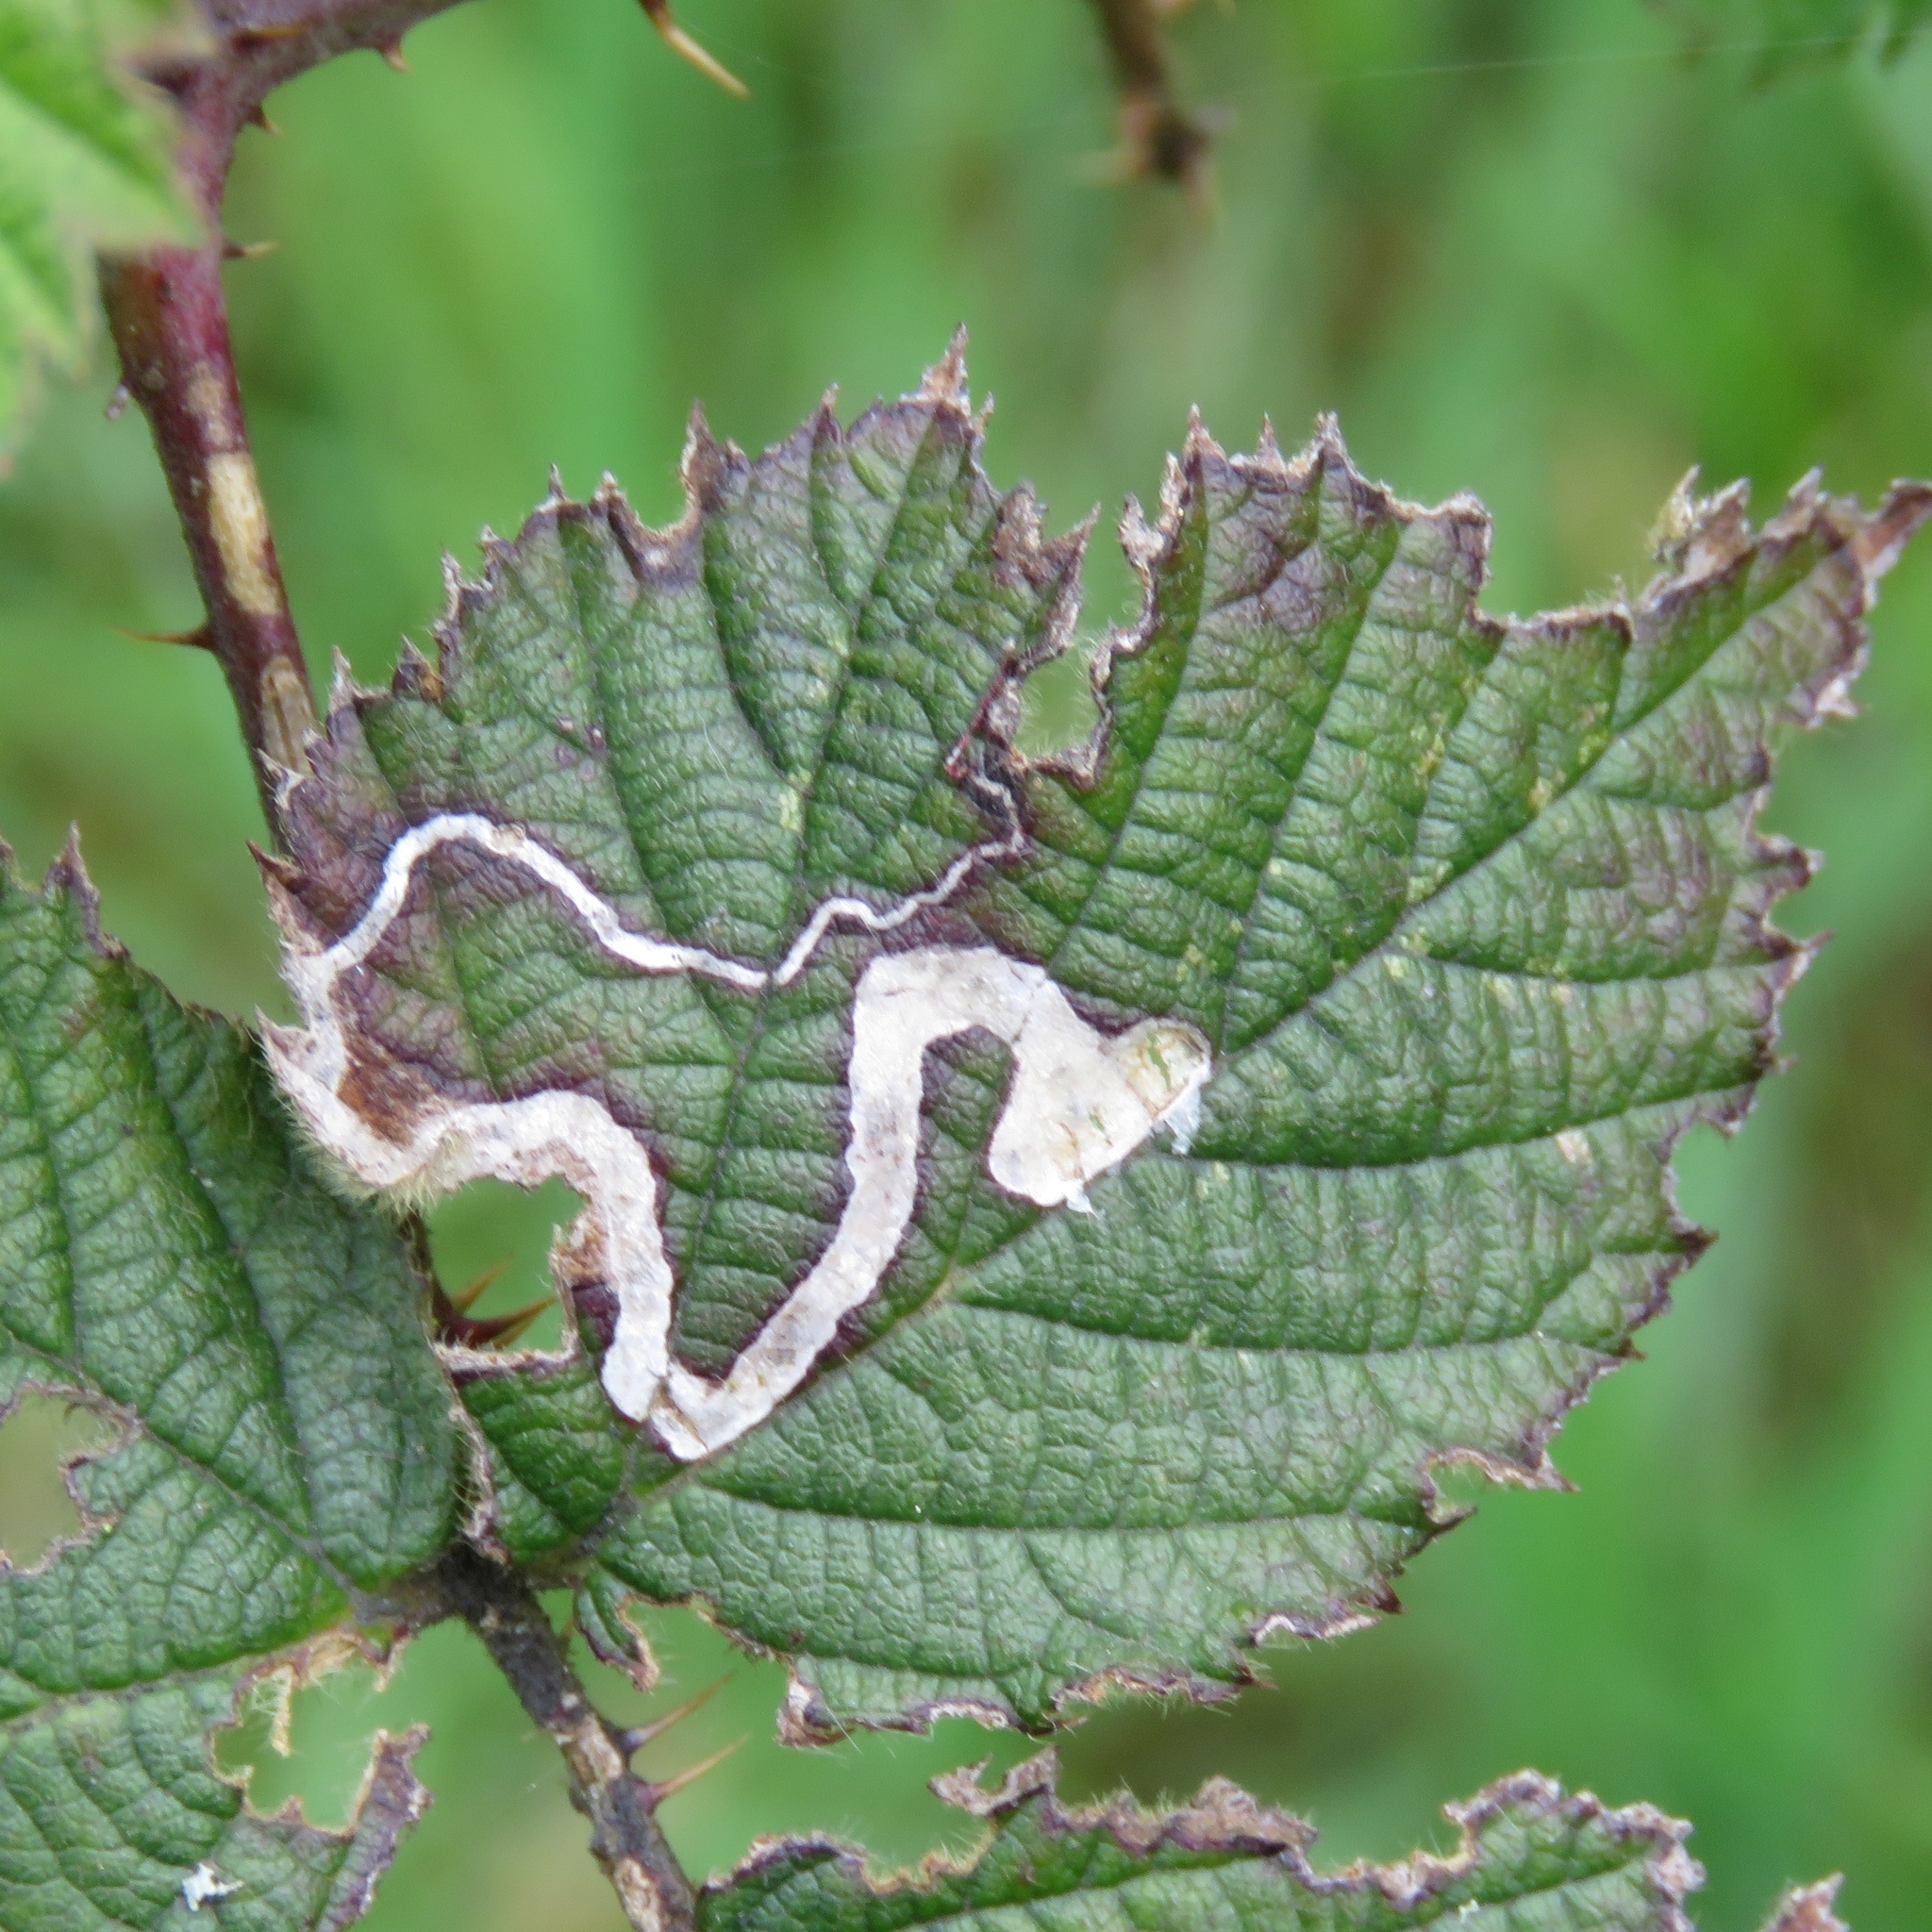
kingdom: Animalia
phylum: Arthropoda
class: Insecta
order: Lepidoptera
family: Nepticulidae
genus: Stigmella
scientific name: Stigmella aurella
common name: Golden pigmy
